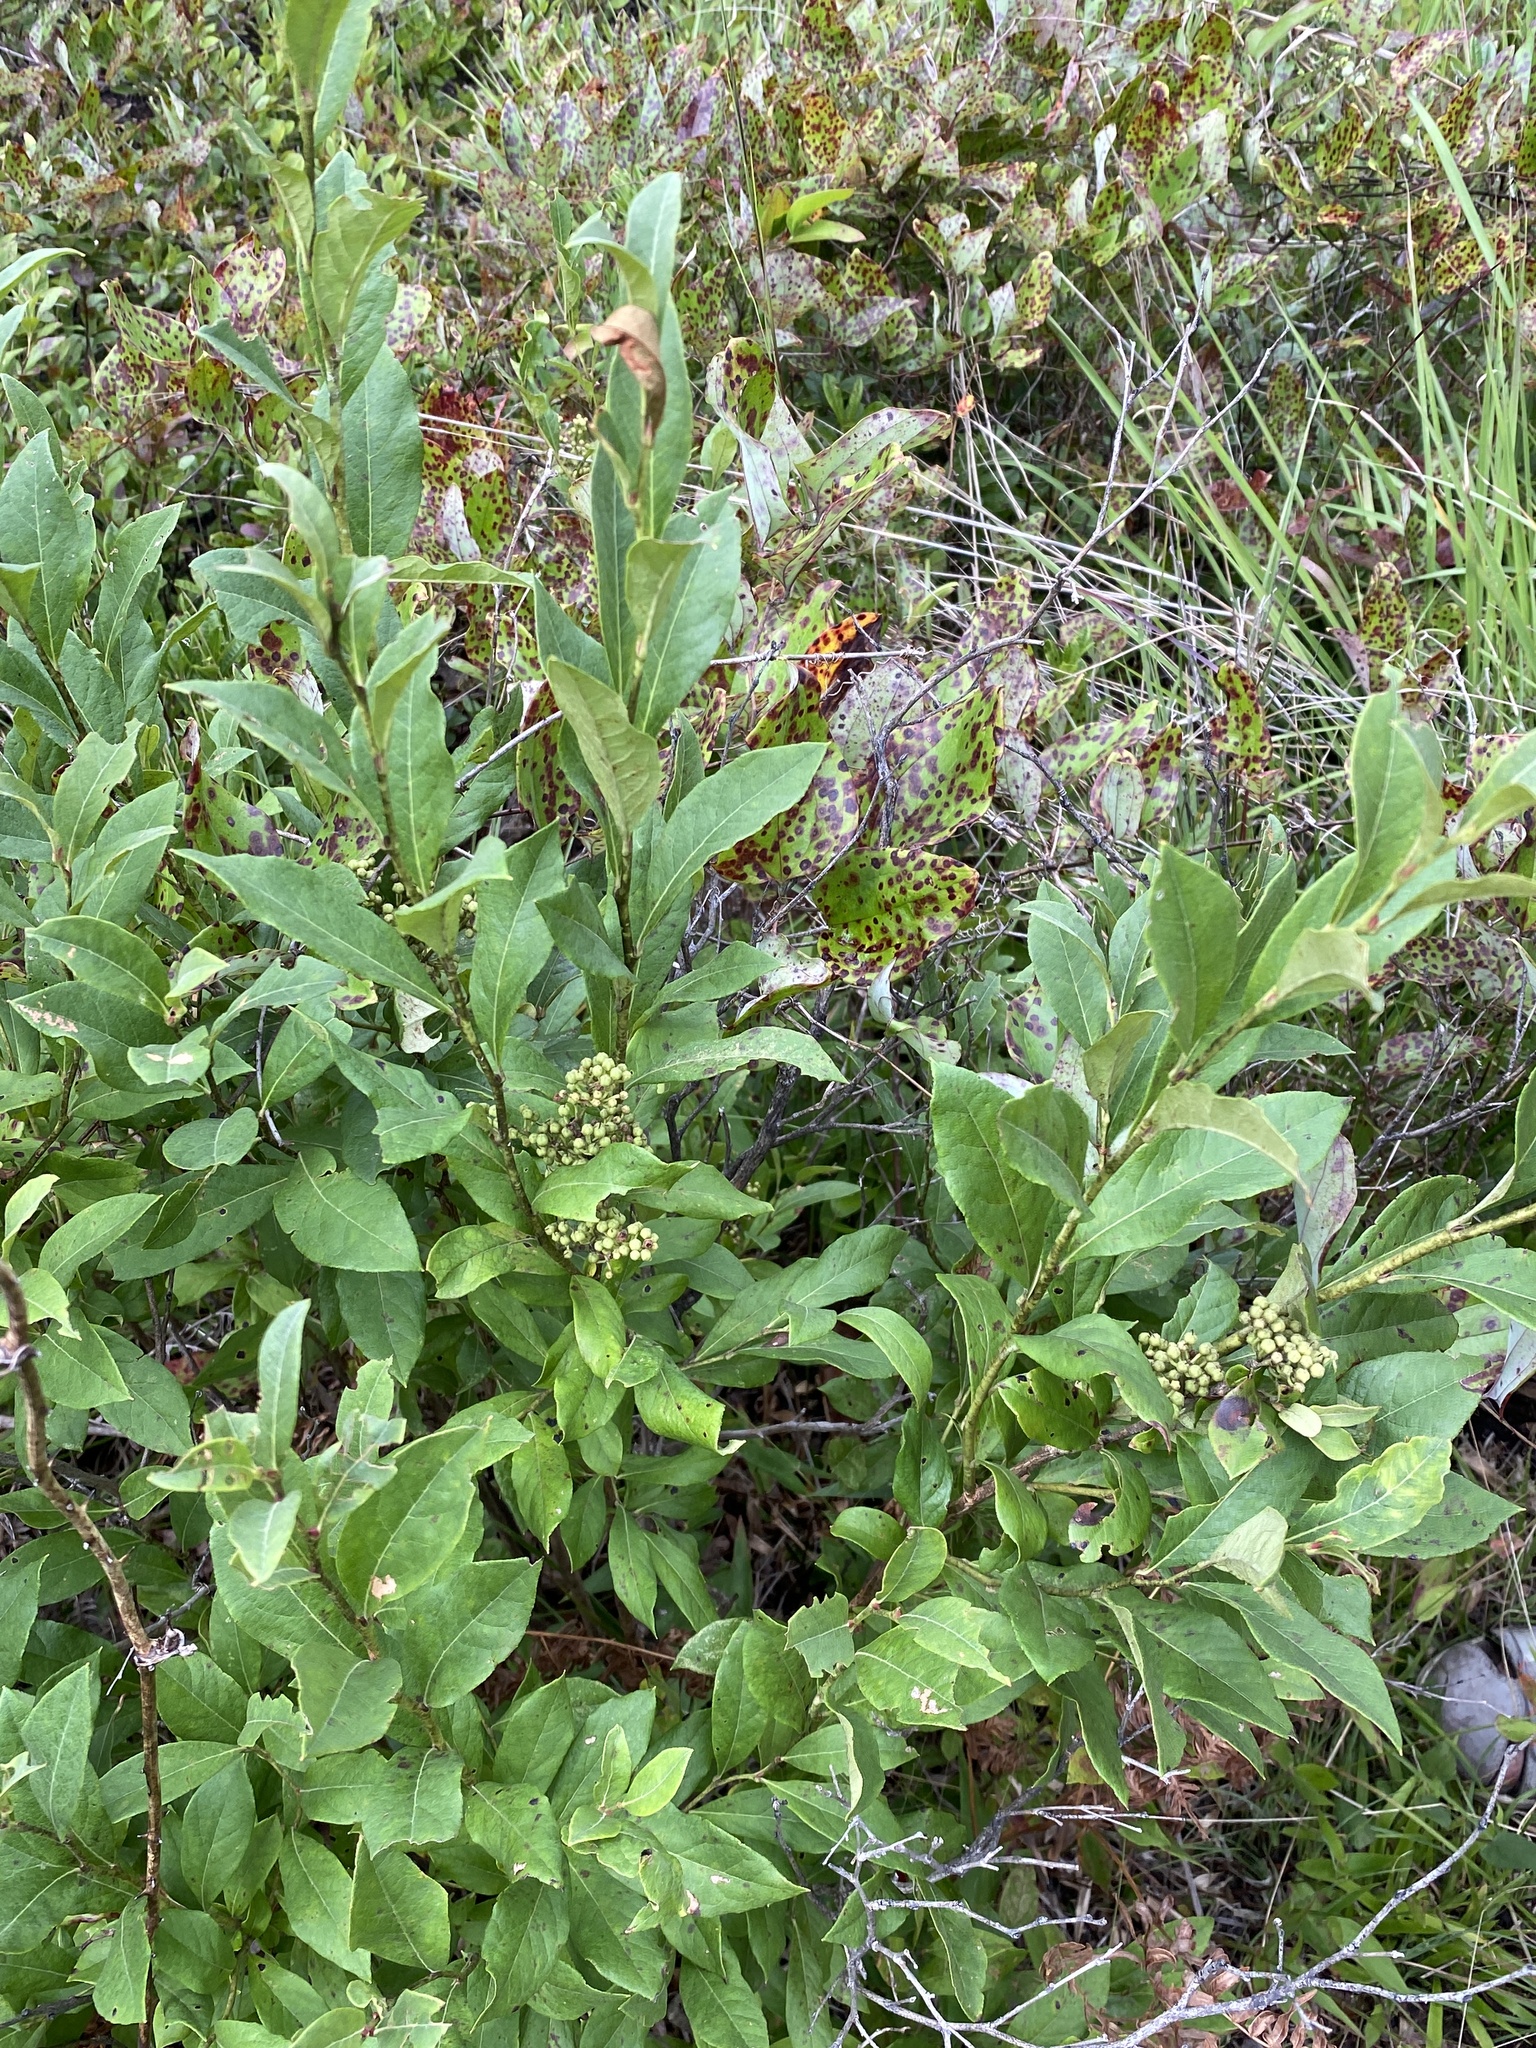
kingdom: Plantae
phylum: Tracheophyta
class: Magnoliopsida
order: Ericales
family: Ericaceae
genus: Lyonia
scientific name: Lyonia ligustrina
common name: Maleberry
